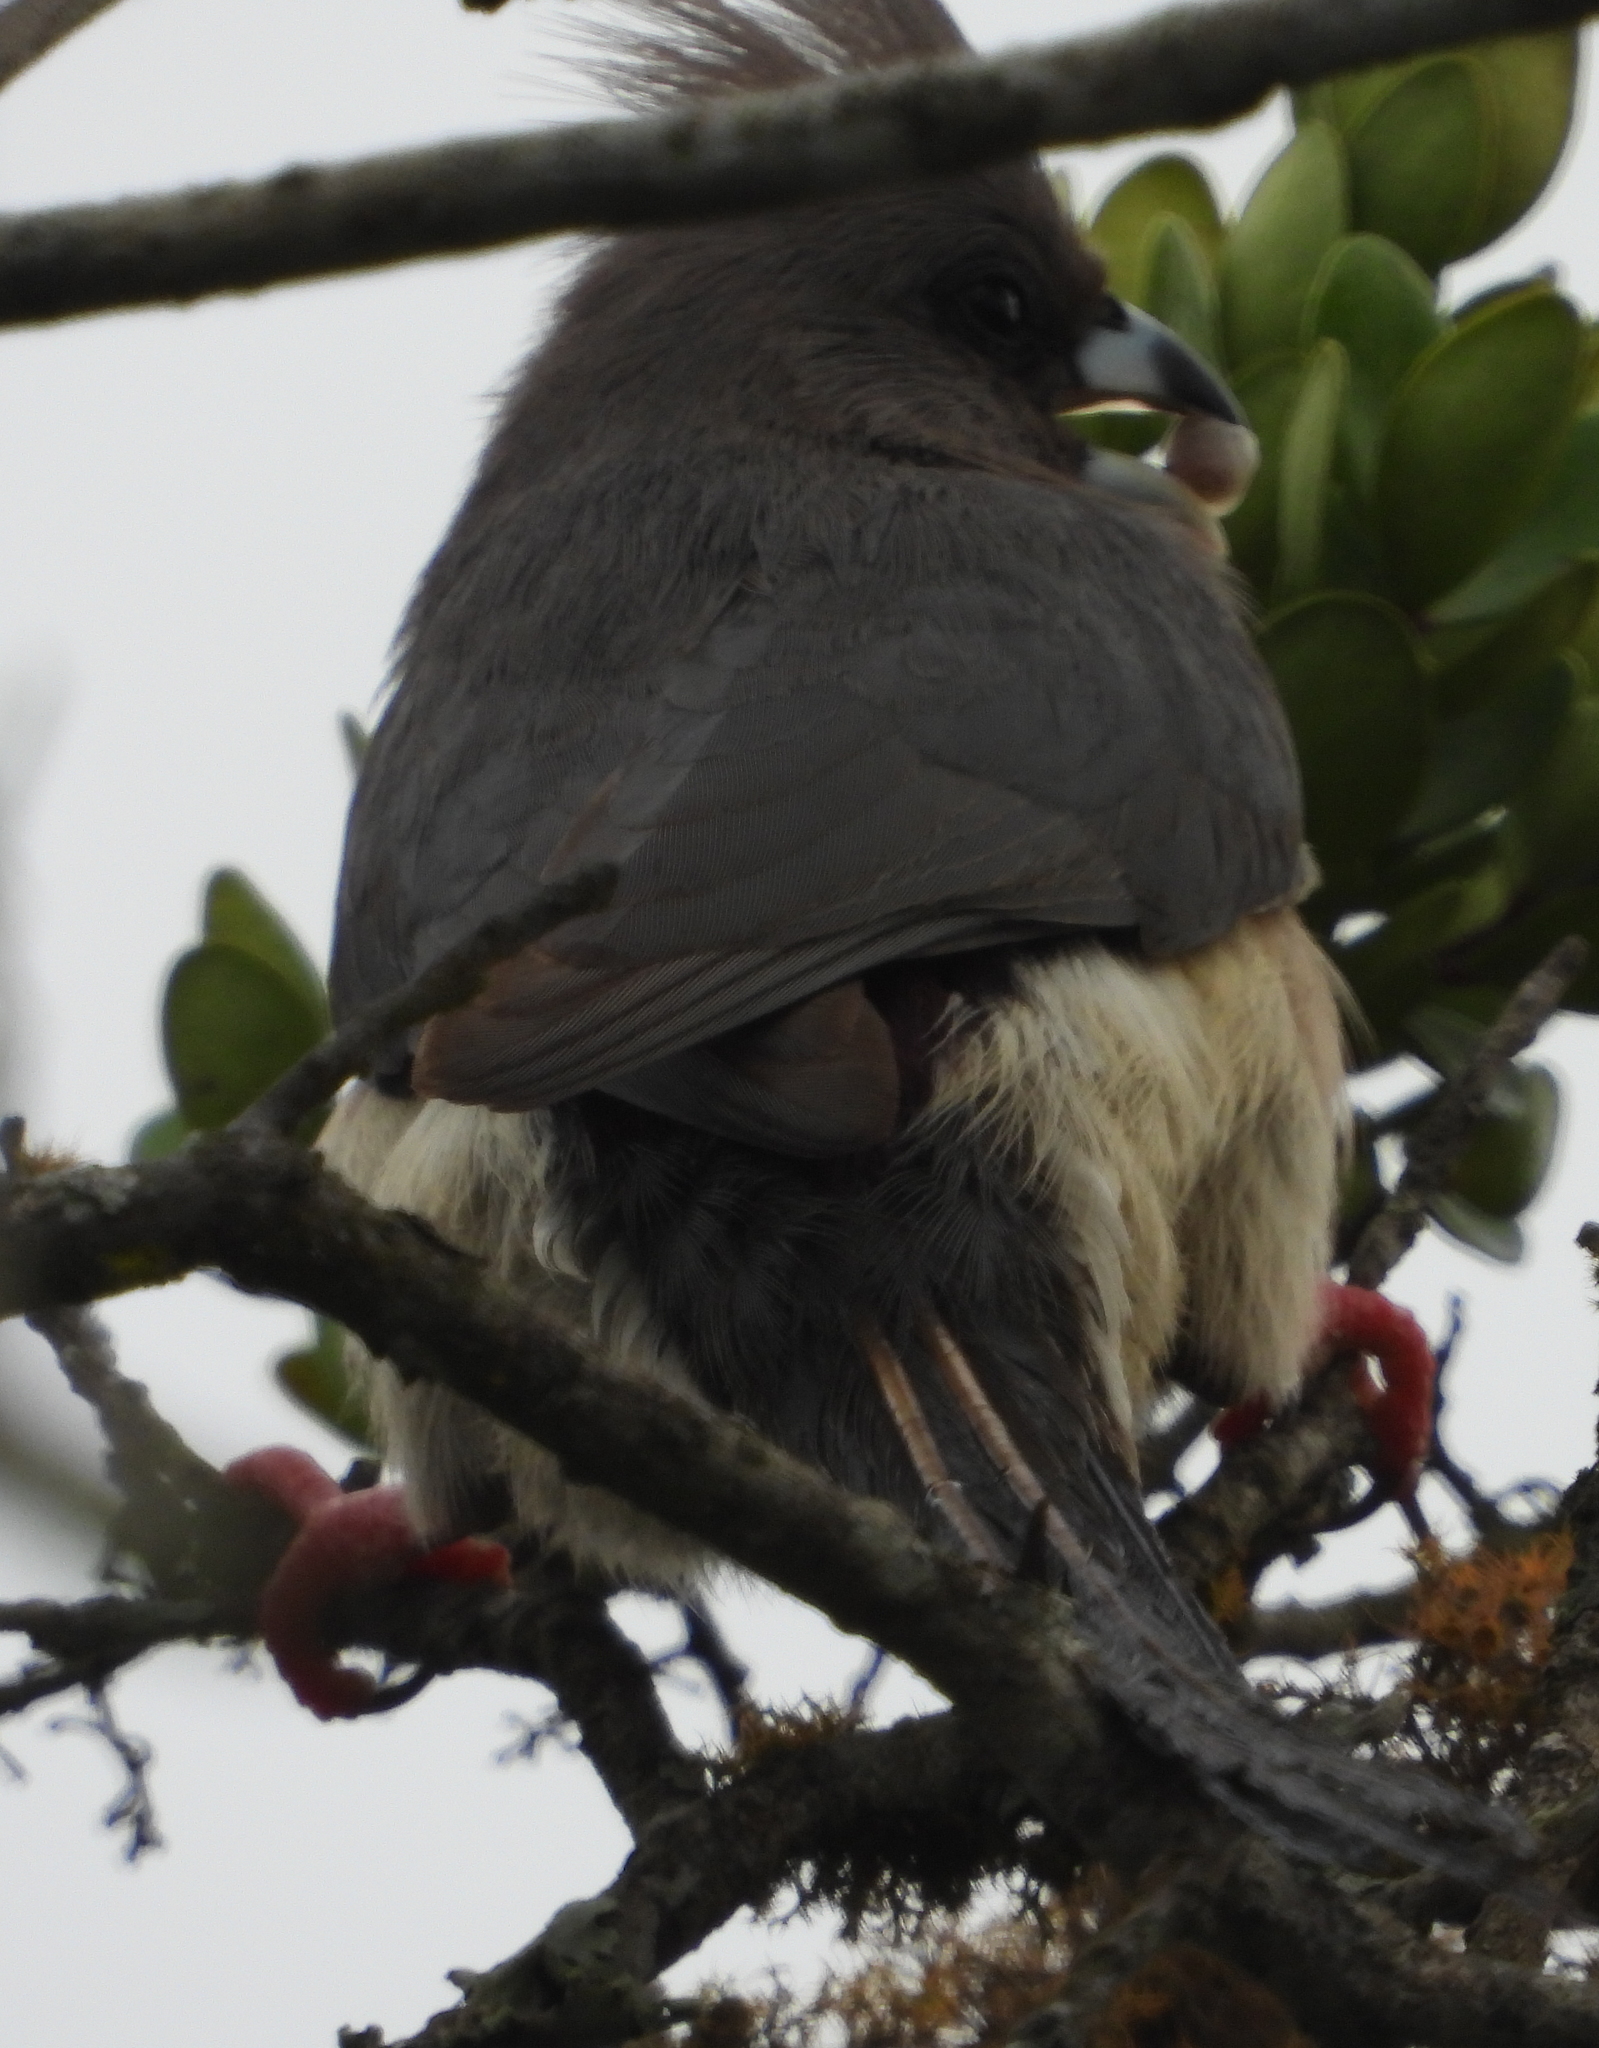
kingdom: Animalia
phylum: Chordata
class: Aves
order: Coliiformes
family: Coliidae
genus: Colius
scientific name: Colius colius
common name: White-backed mousebird
